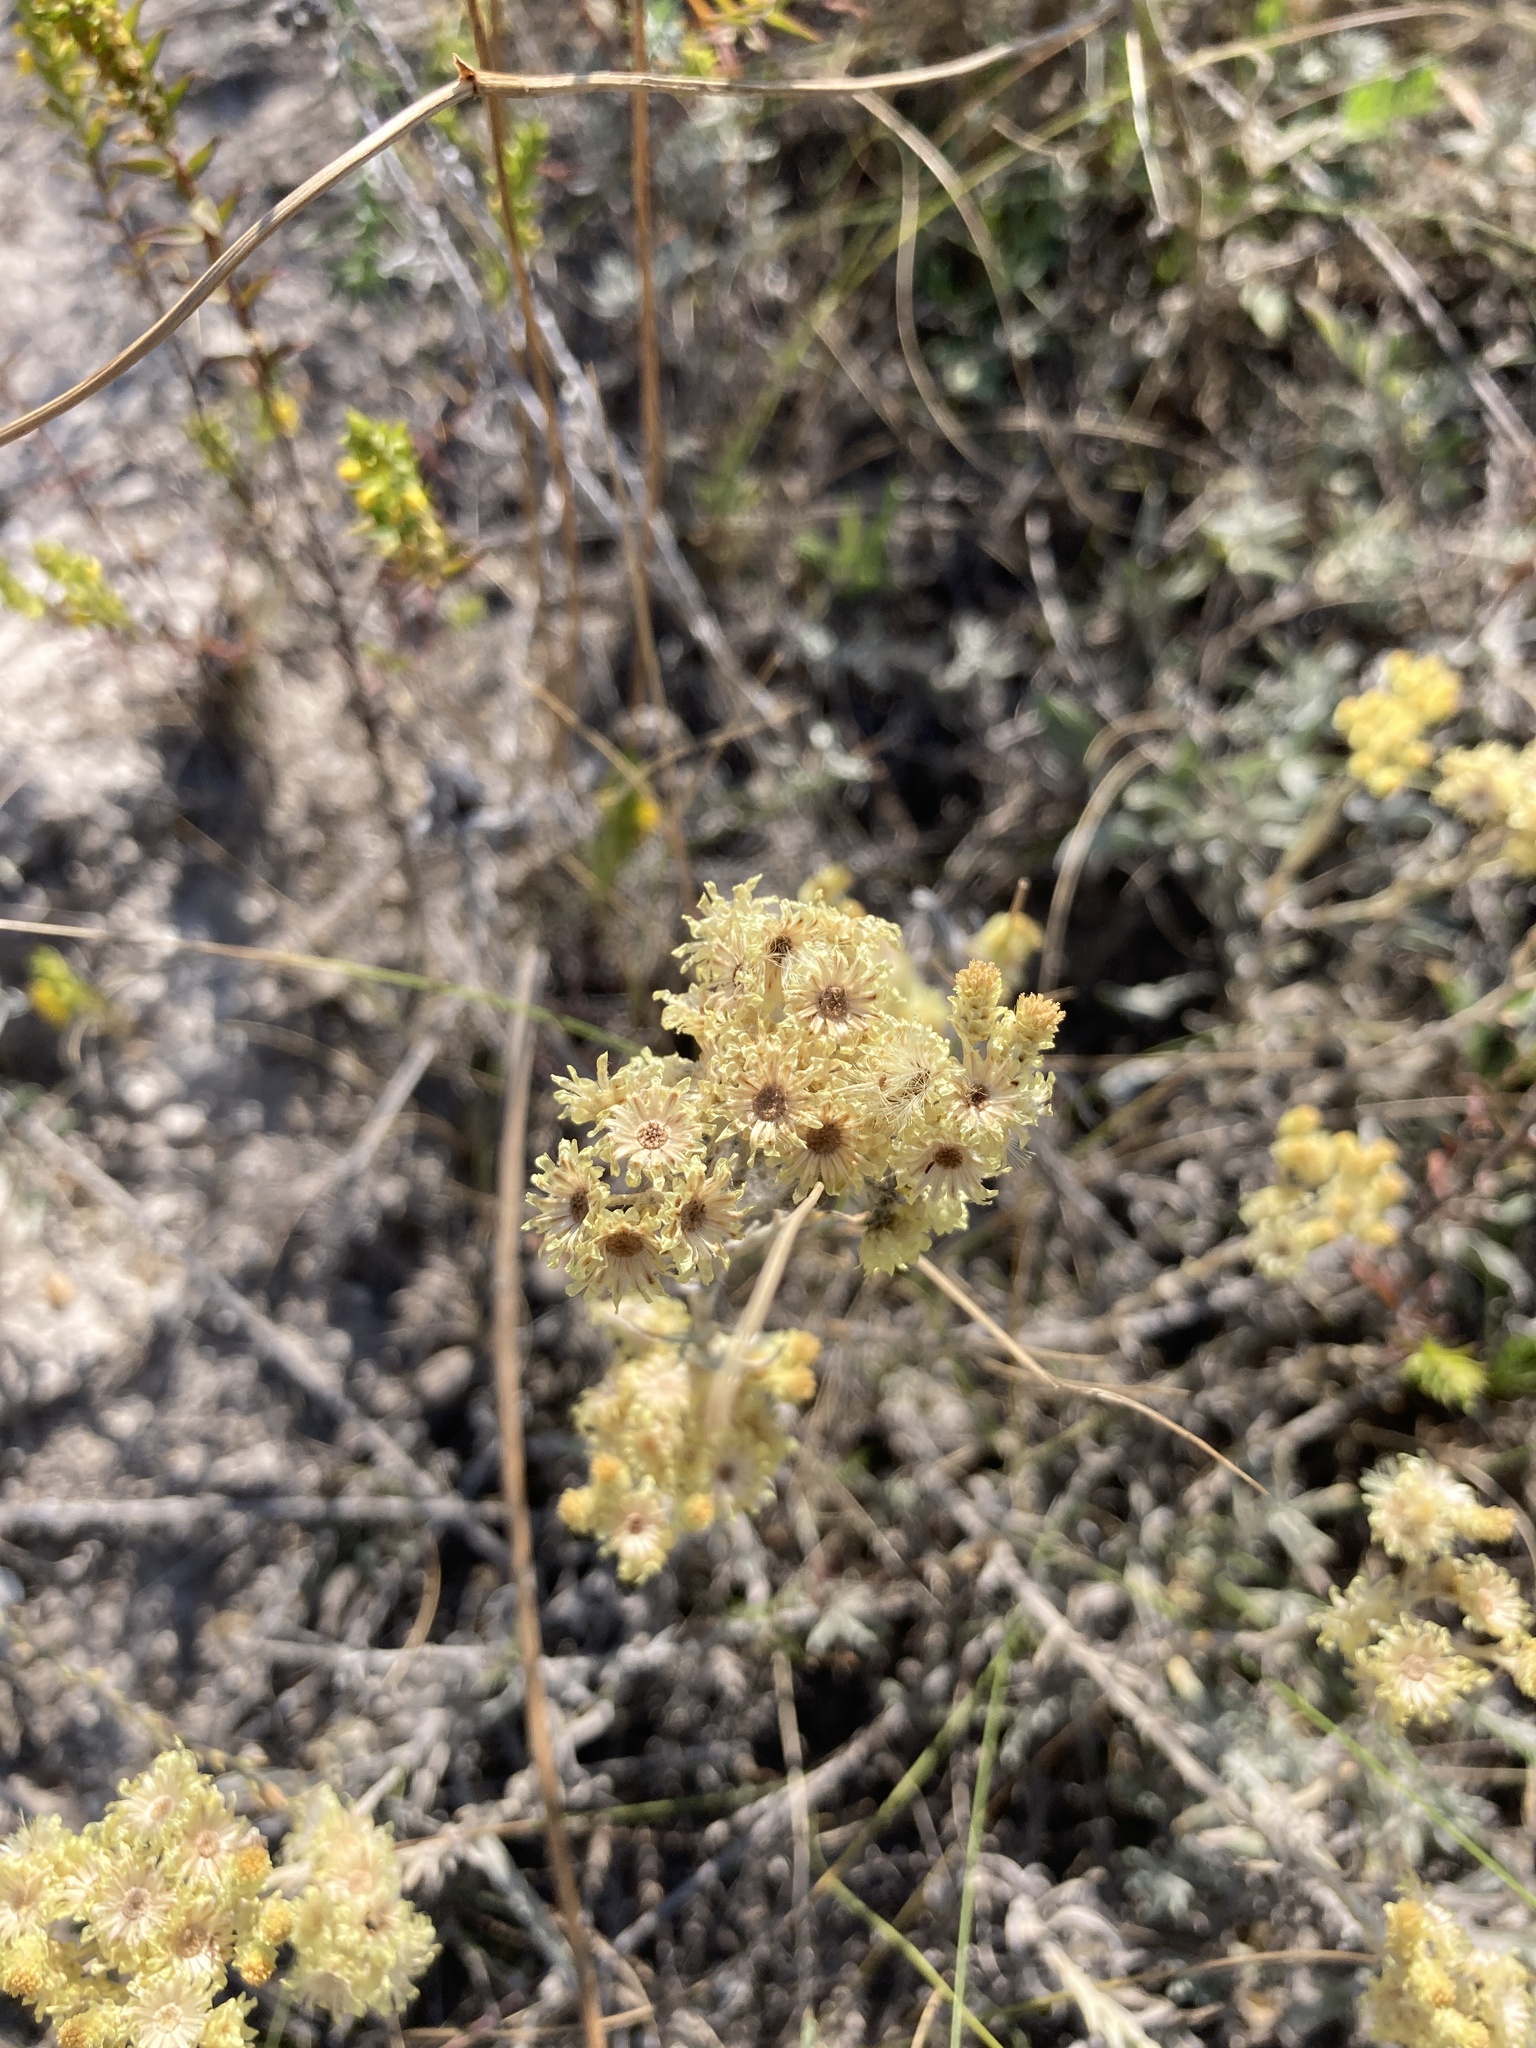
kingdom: Plantae
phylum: Tracheophyta
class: Magnoliopsida
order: Asterales
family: Asteraceae
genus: Helichrysum
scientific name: Helichrysum arenarium
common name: Strawflower
